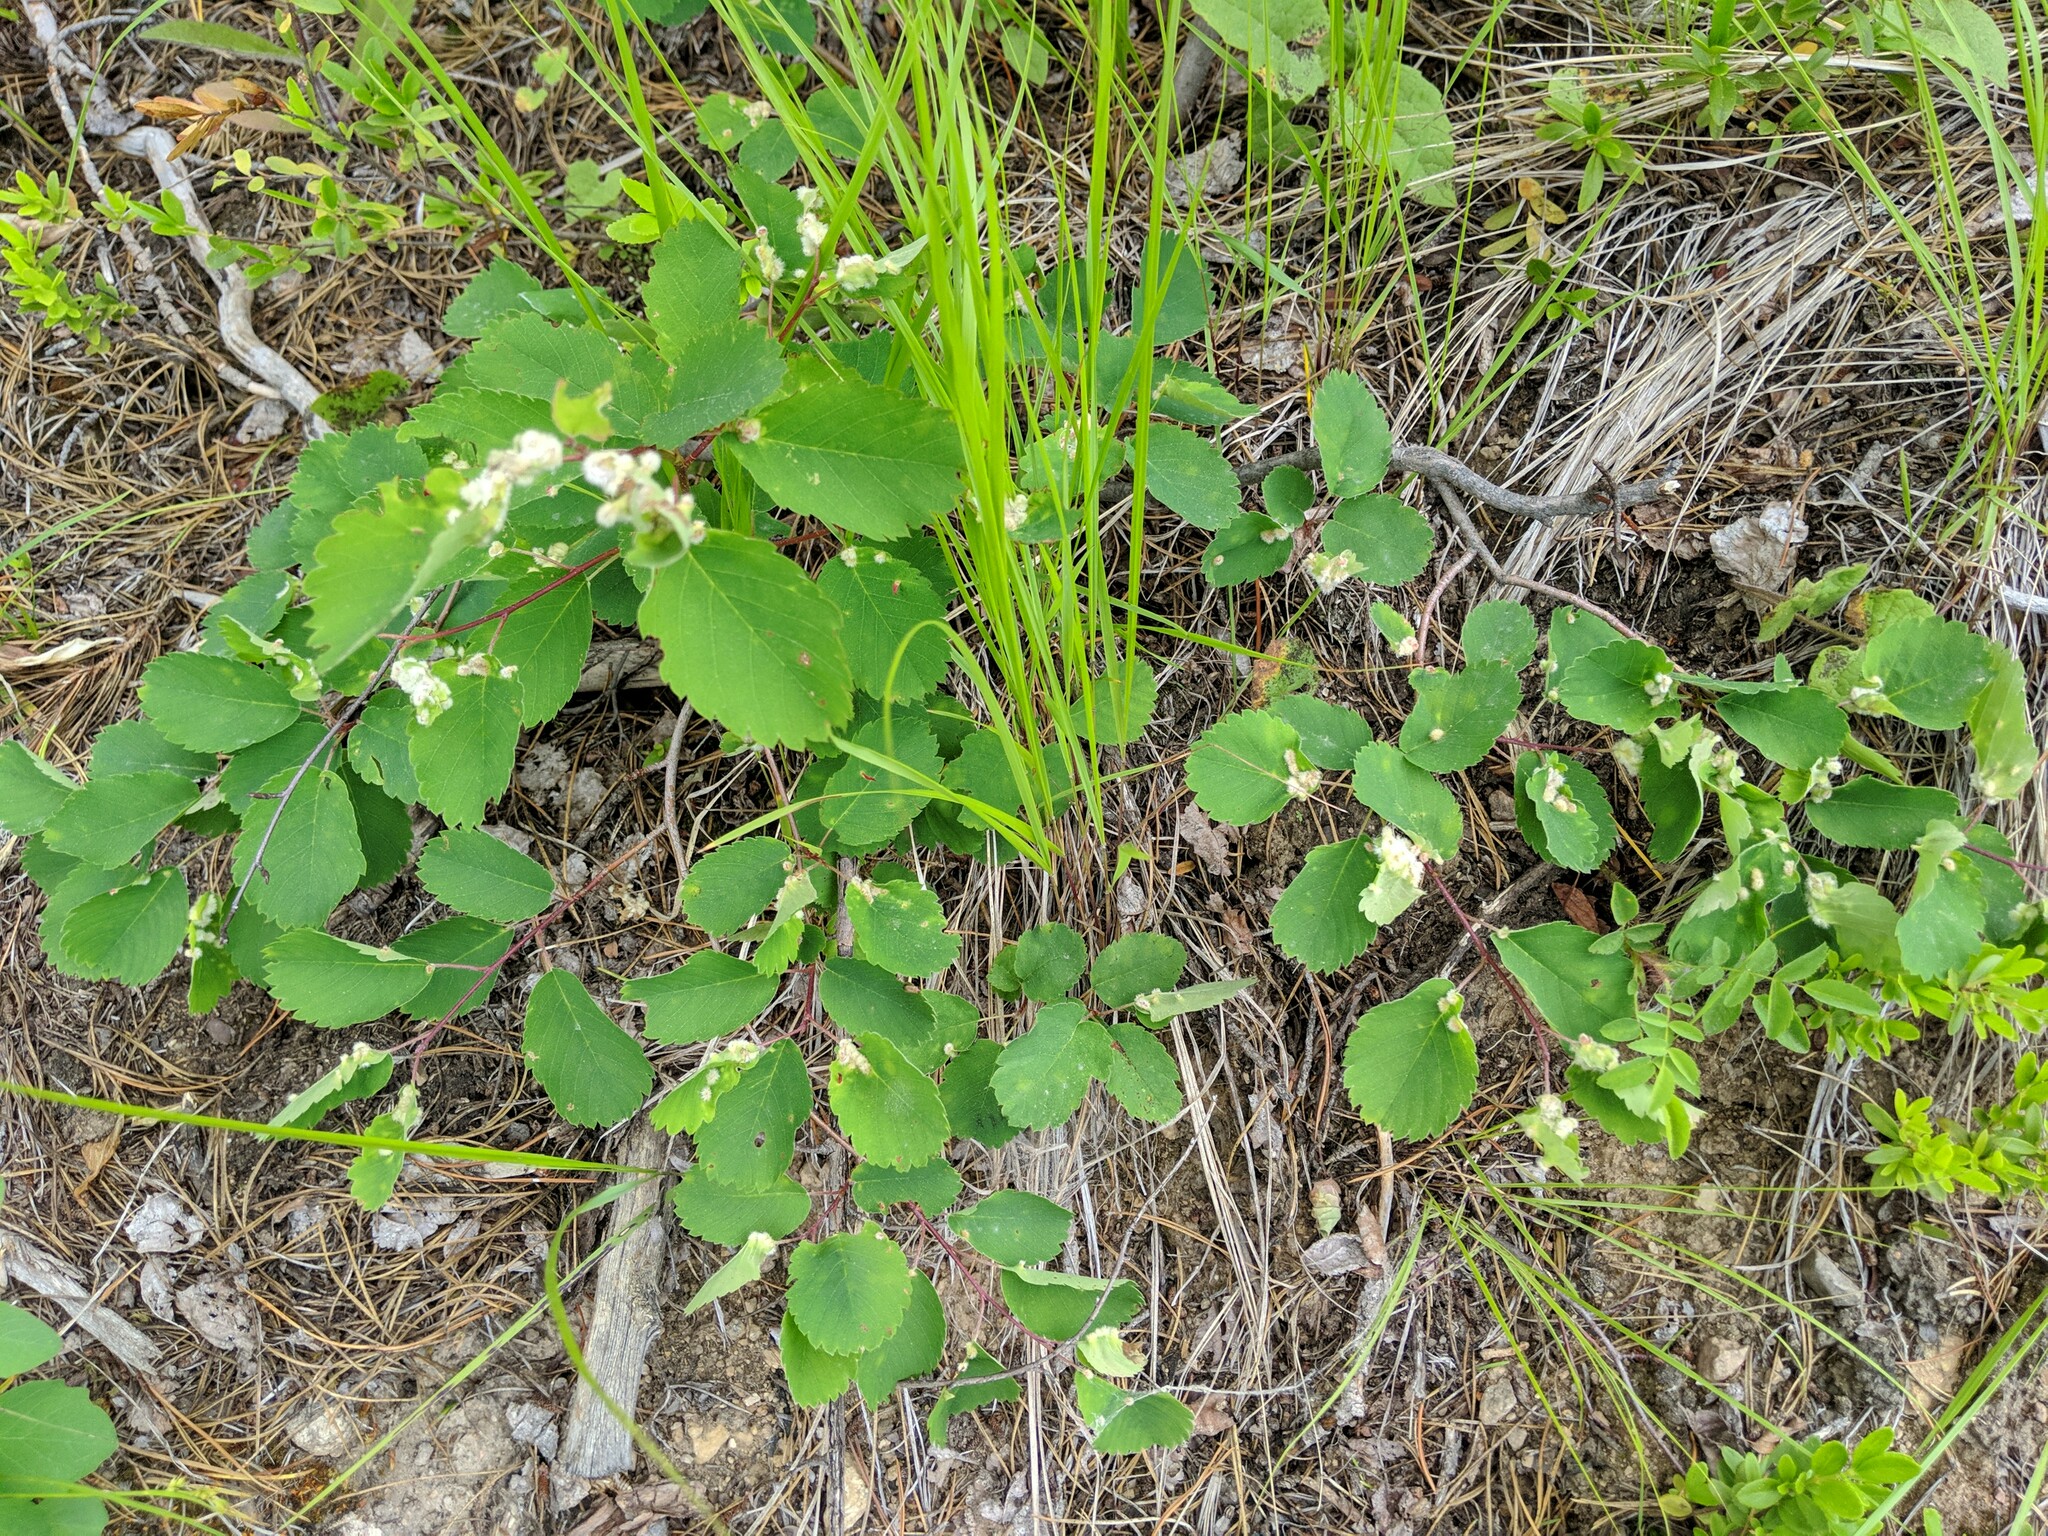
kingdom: Plantae
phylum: Tracheophyta
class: Magnoliopsida
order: Rosales
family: Rosaceae
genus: Spiraea
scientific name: Spiraea lucida
